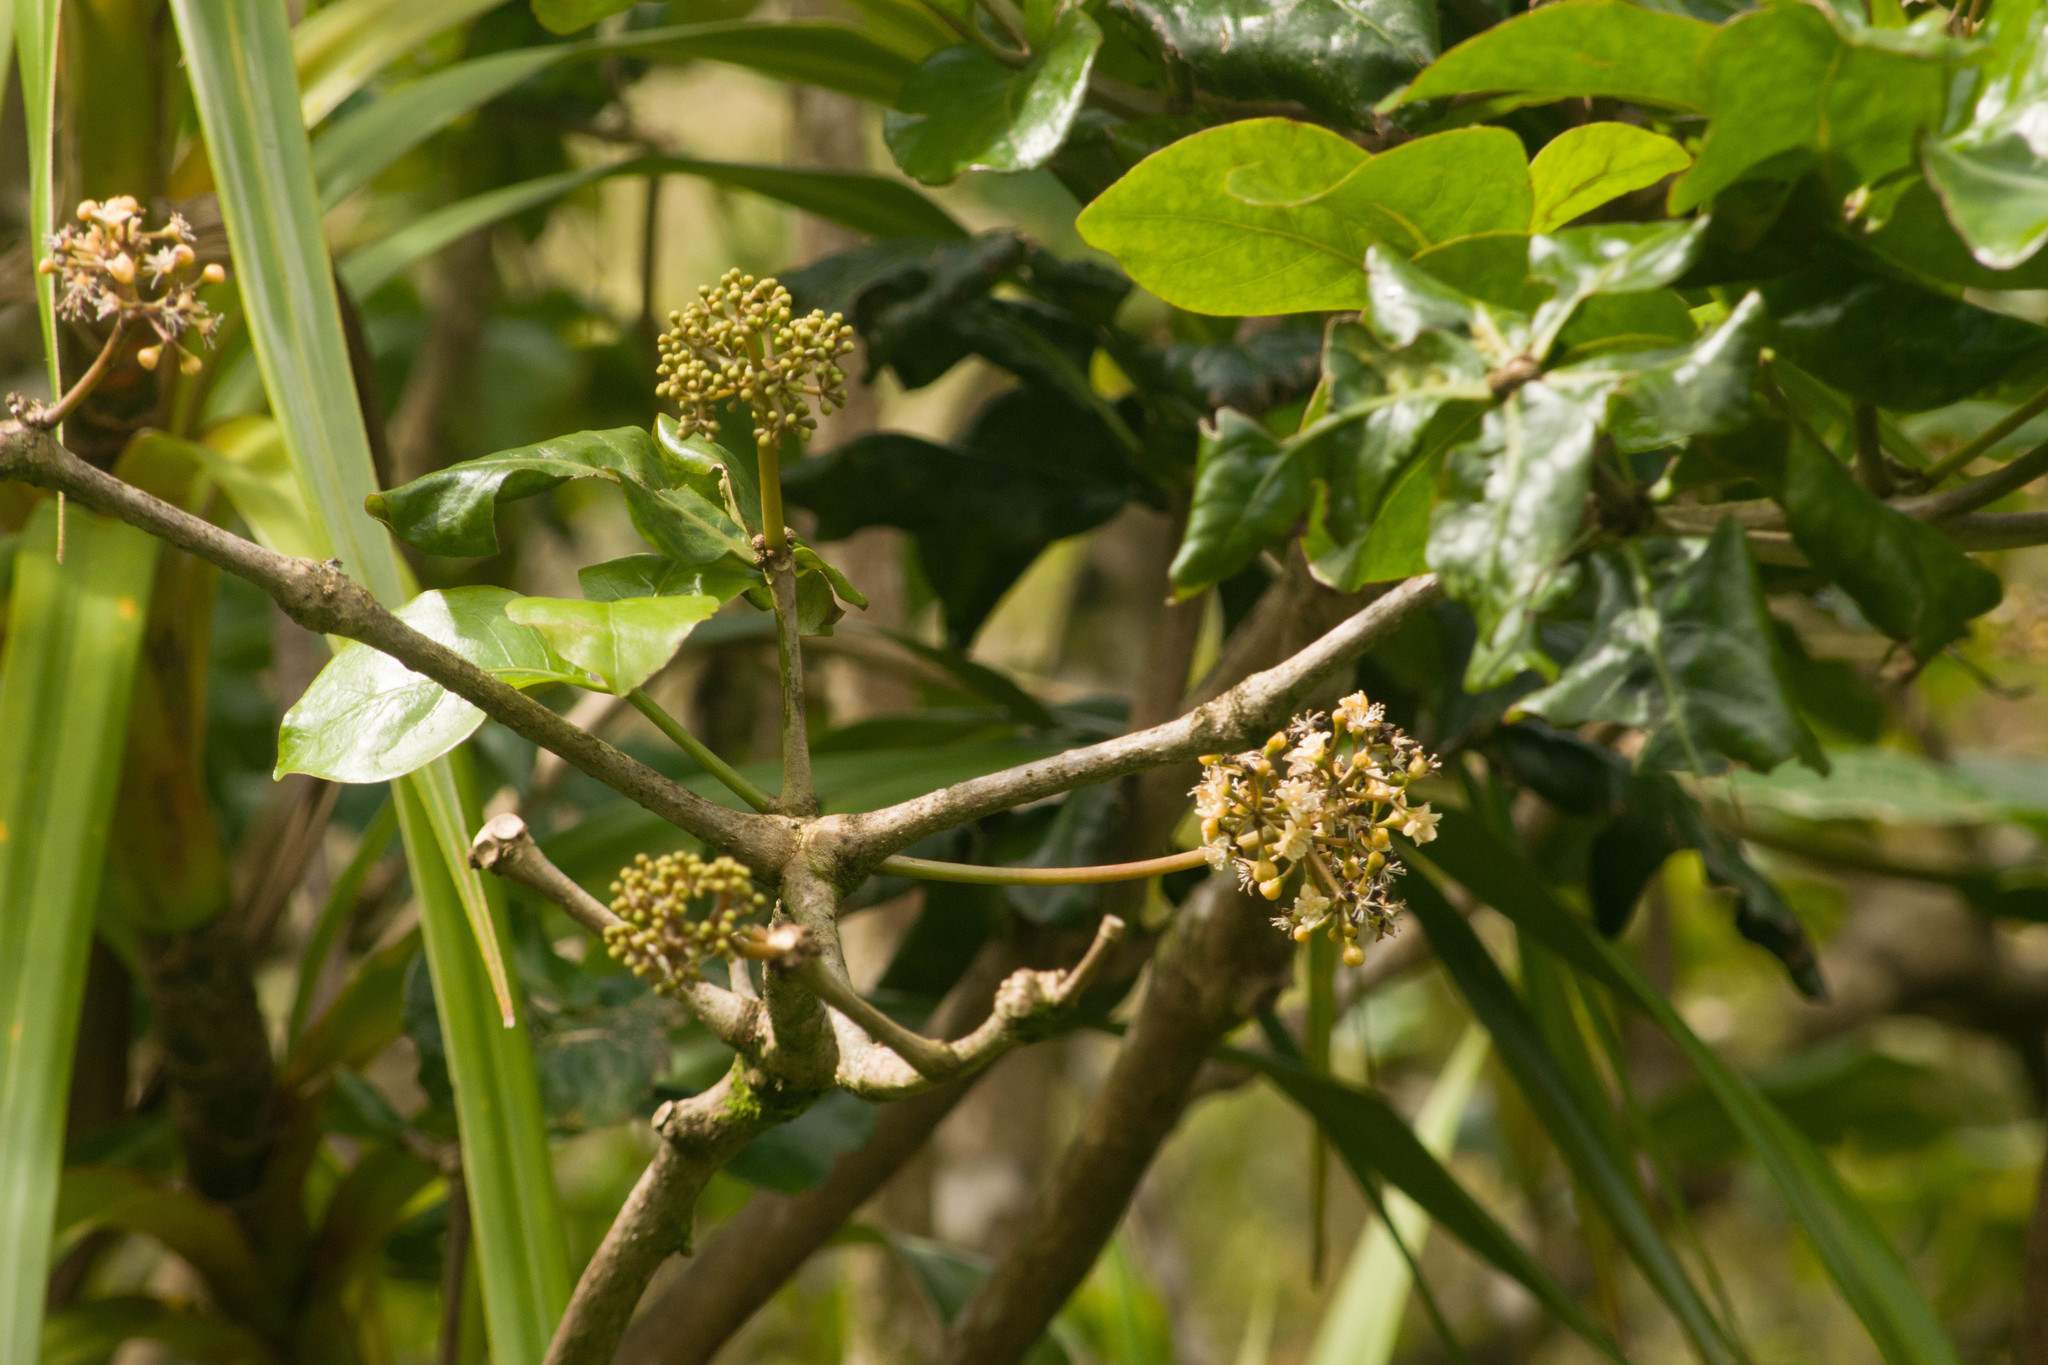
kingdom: Plantae
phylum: Tracheophyta
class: Magnoliopsida
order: Caryophyllales
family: Nyctaginaceae
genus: Ceodes
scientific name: Ceodes umbellifera
